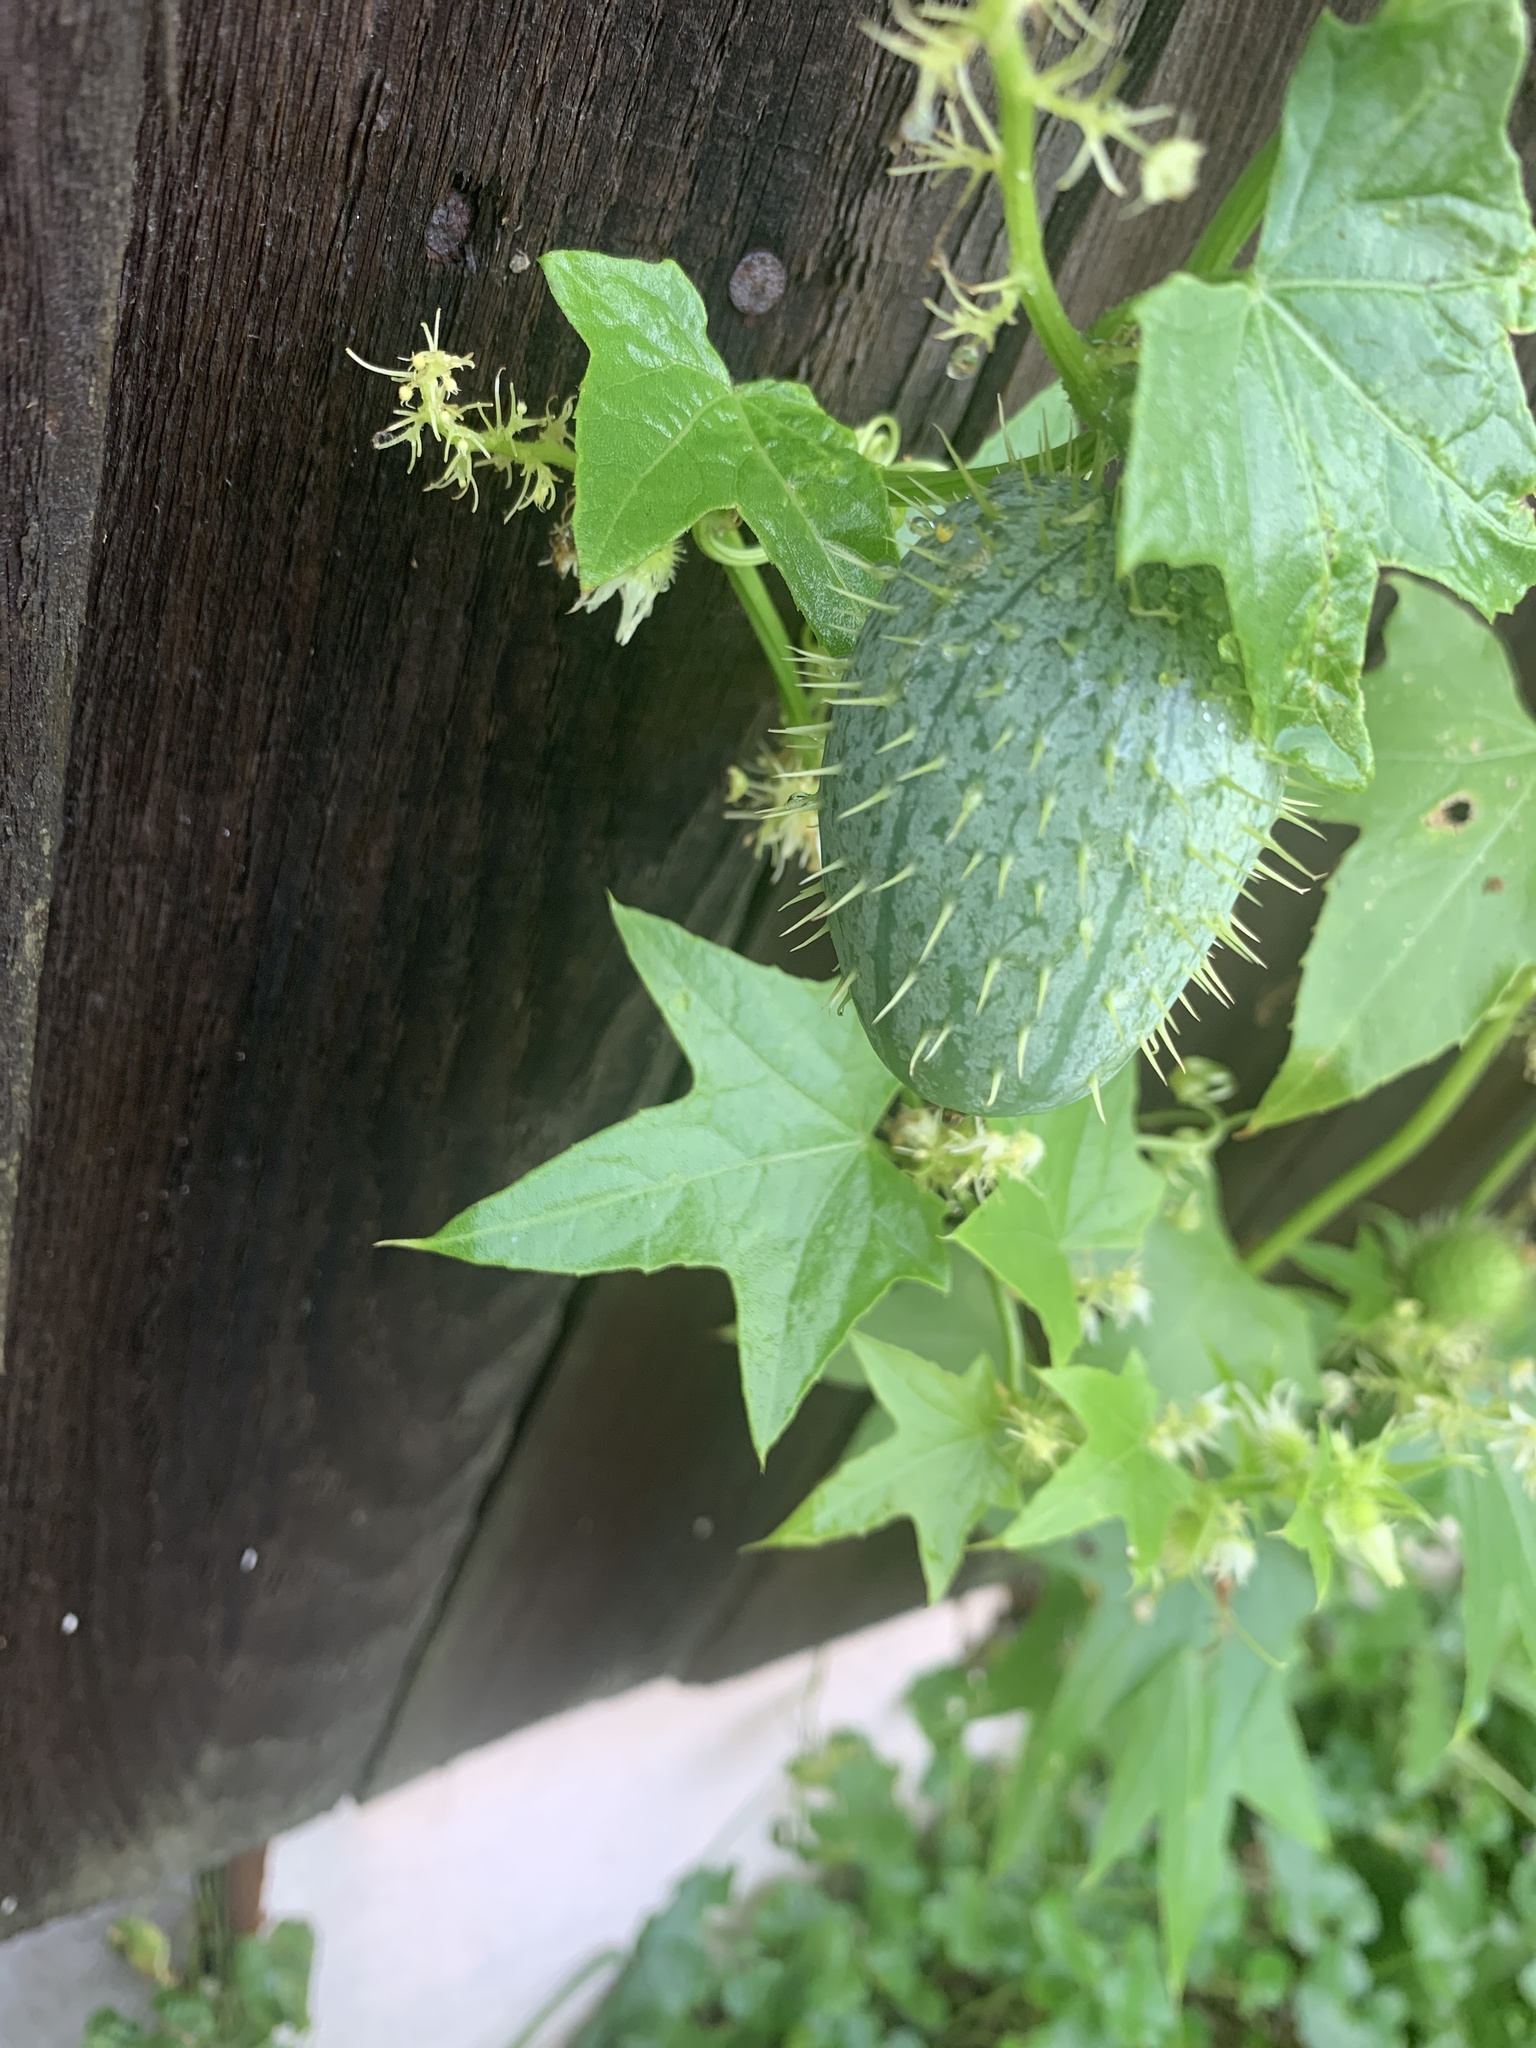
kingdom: Plantae
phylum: Tracheophyta
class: Magnoliopsida
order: Cucurbitales
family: Cucurbitaceae
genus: Echinocystis
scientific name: Echinocystis lobata
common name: Wild cucumber
